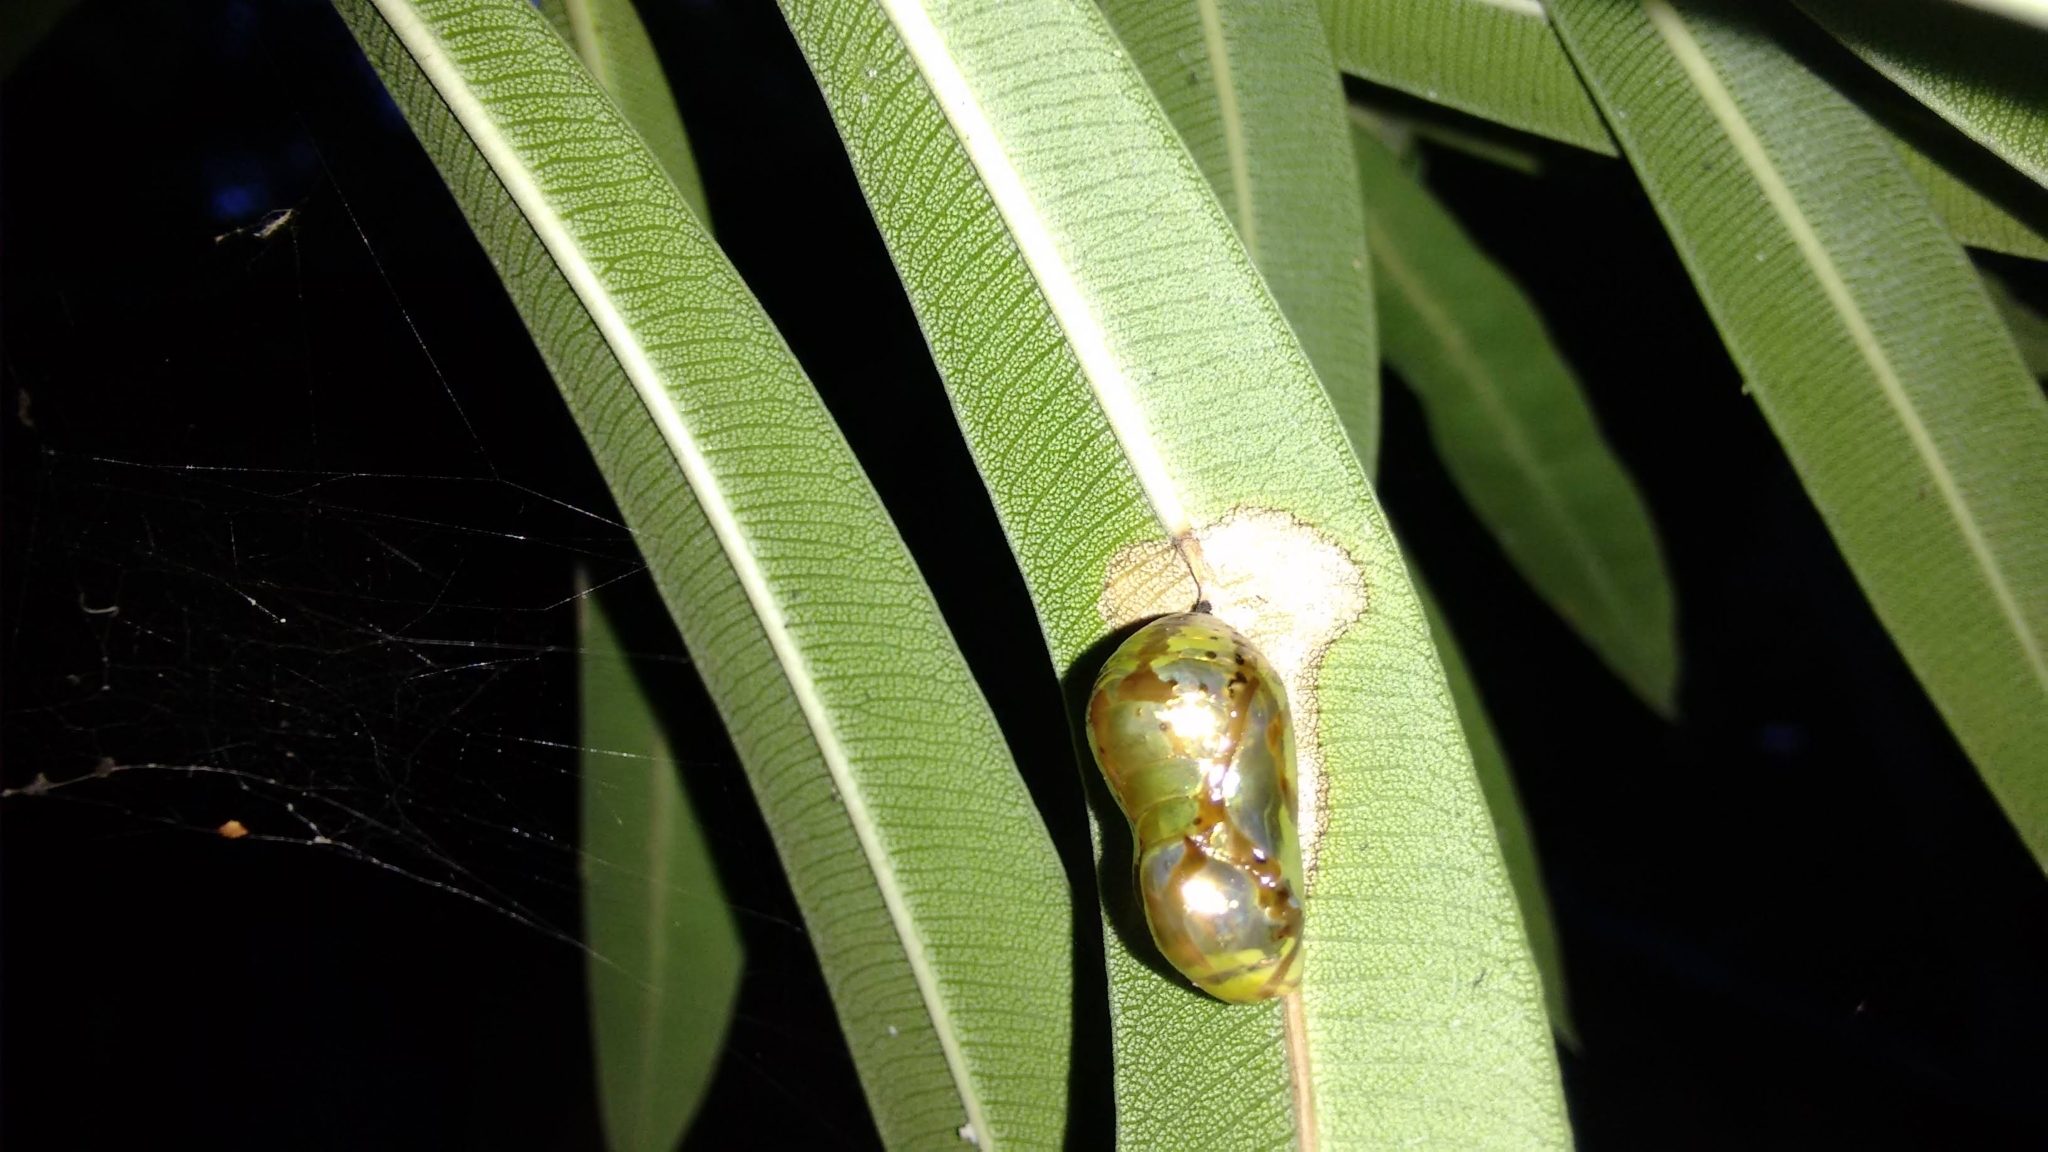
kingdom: Animalia
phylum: Arthropoda
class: Insecta
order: Lepidoptera
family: Nymphalidae
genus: Euploea
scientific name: Euploea core
